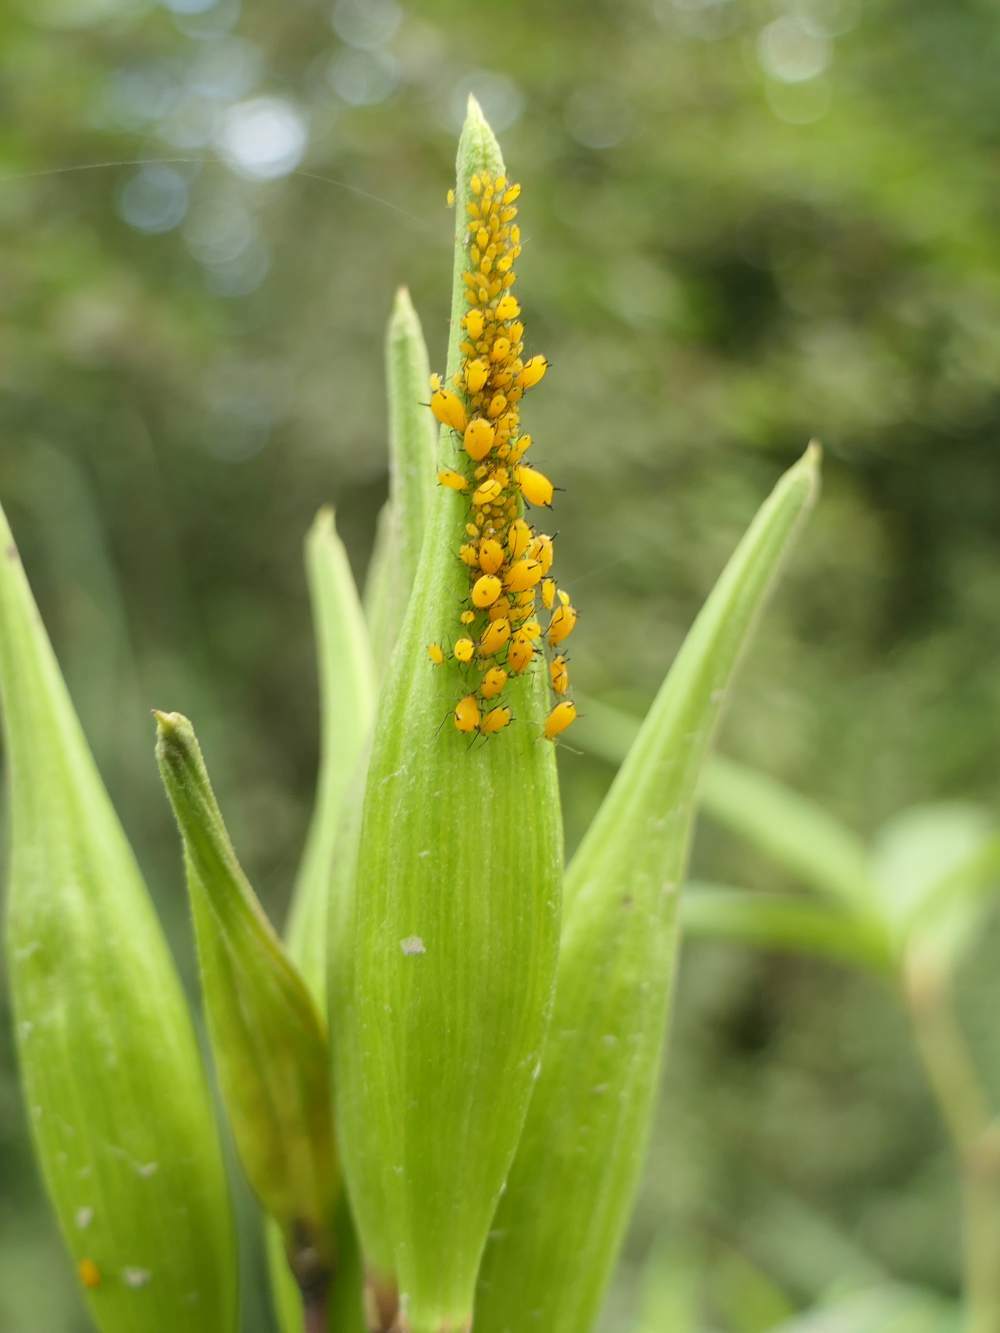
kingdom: Animalia
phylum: Arthropoda
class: Insecta
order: Hemiptera
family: Aphididae
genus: Aphis
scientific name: Aphis nerii
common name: Oleander aphid
